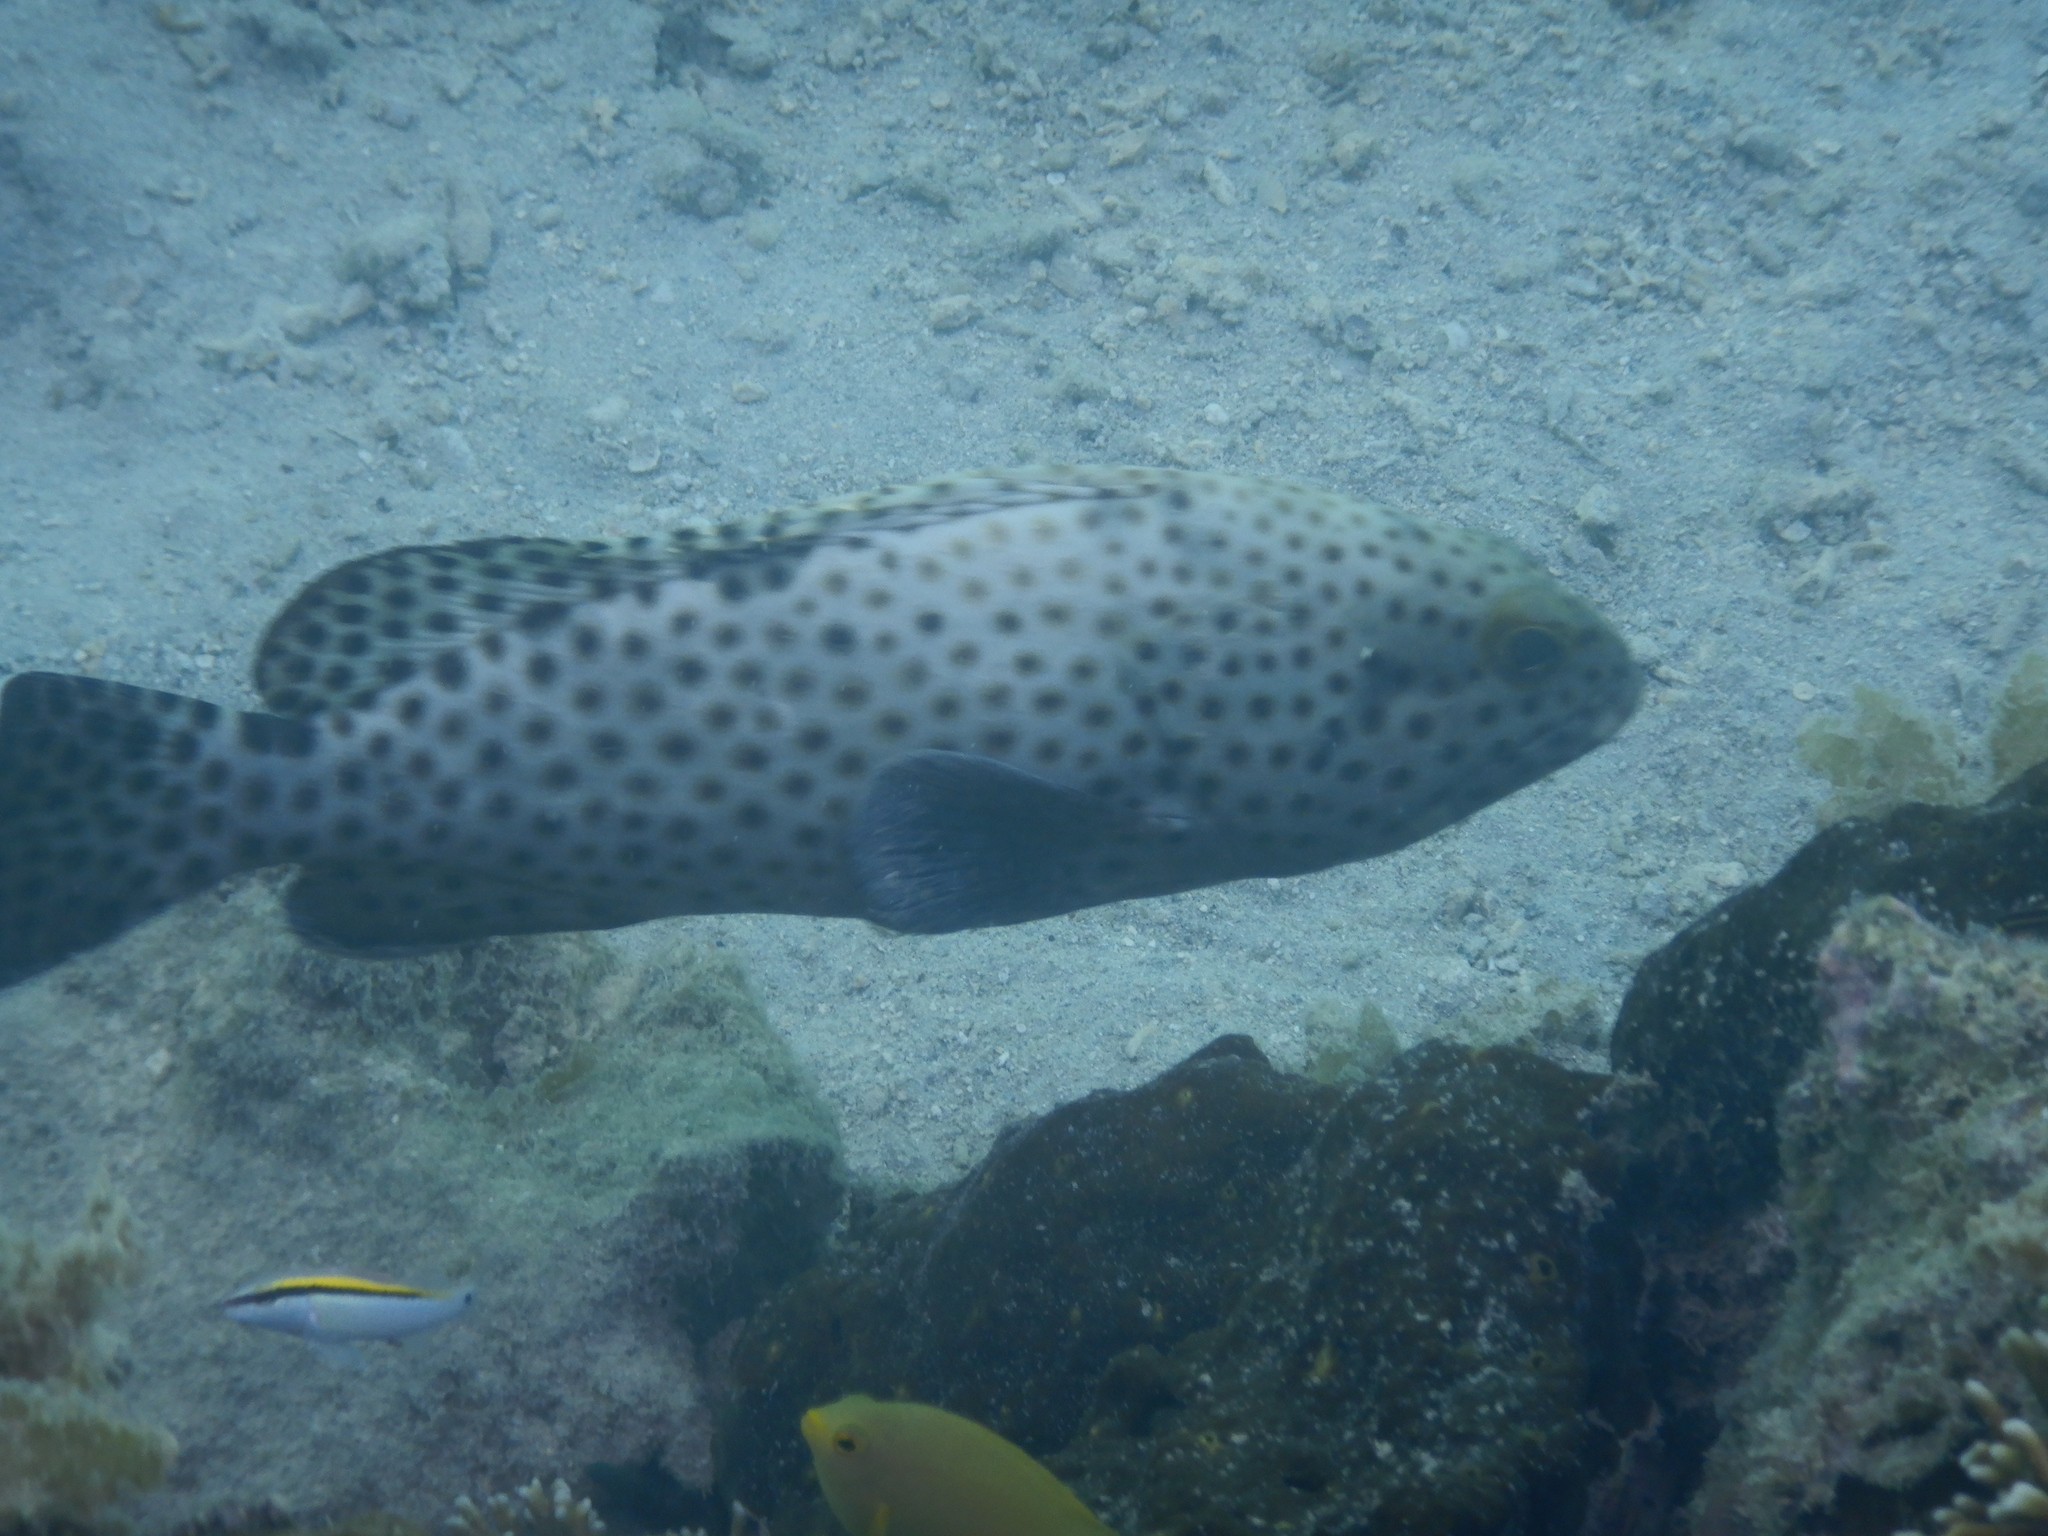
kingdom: Animalia
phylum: Chordata
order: Perciformes
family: Serranidae
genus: Epinephelus
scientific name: Epinephelus howlandi
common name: Blacksaddle grouper
